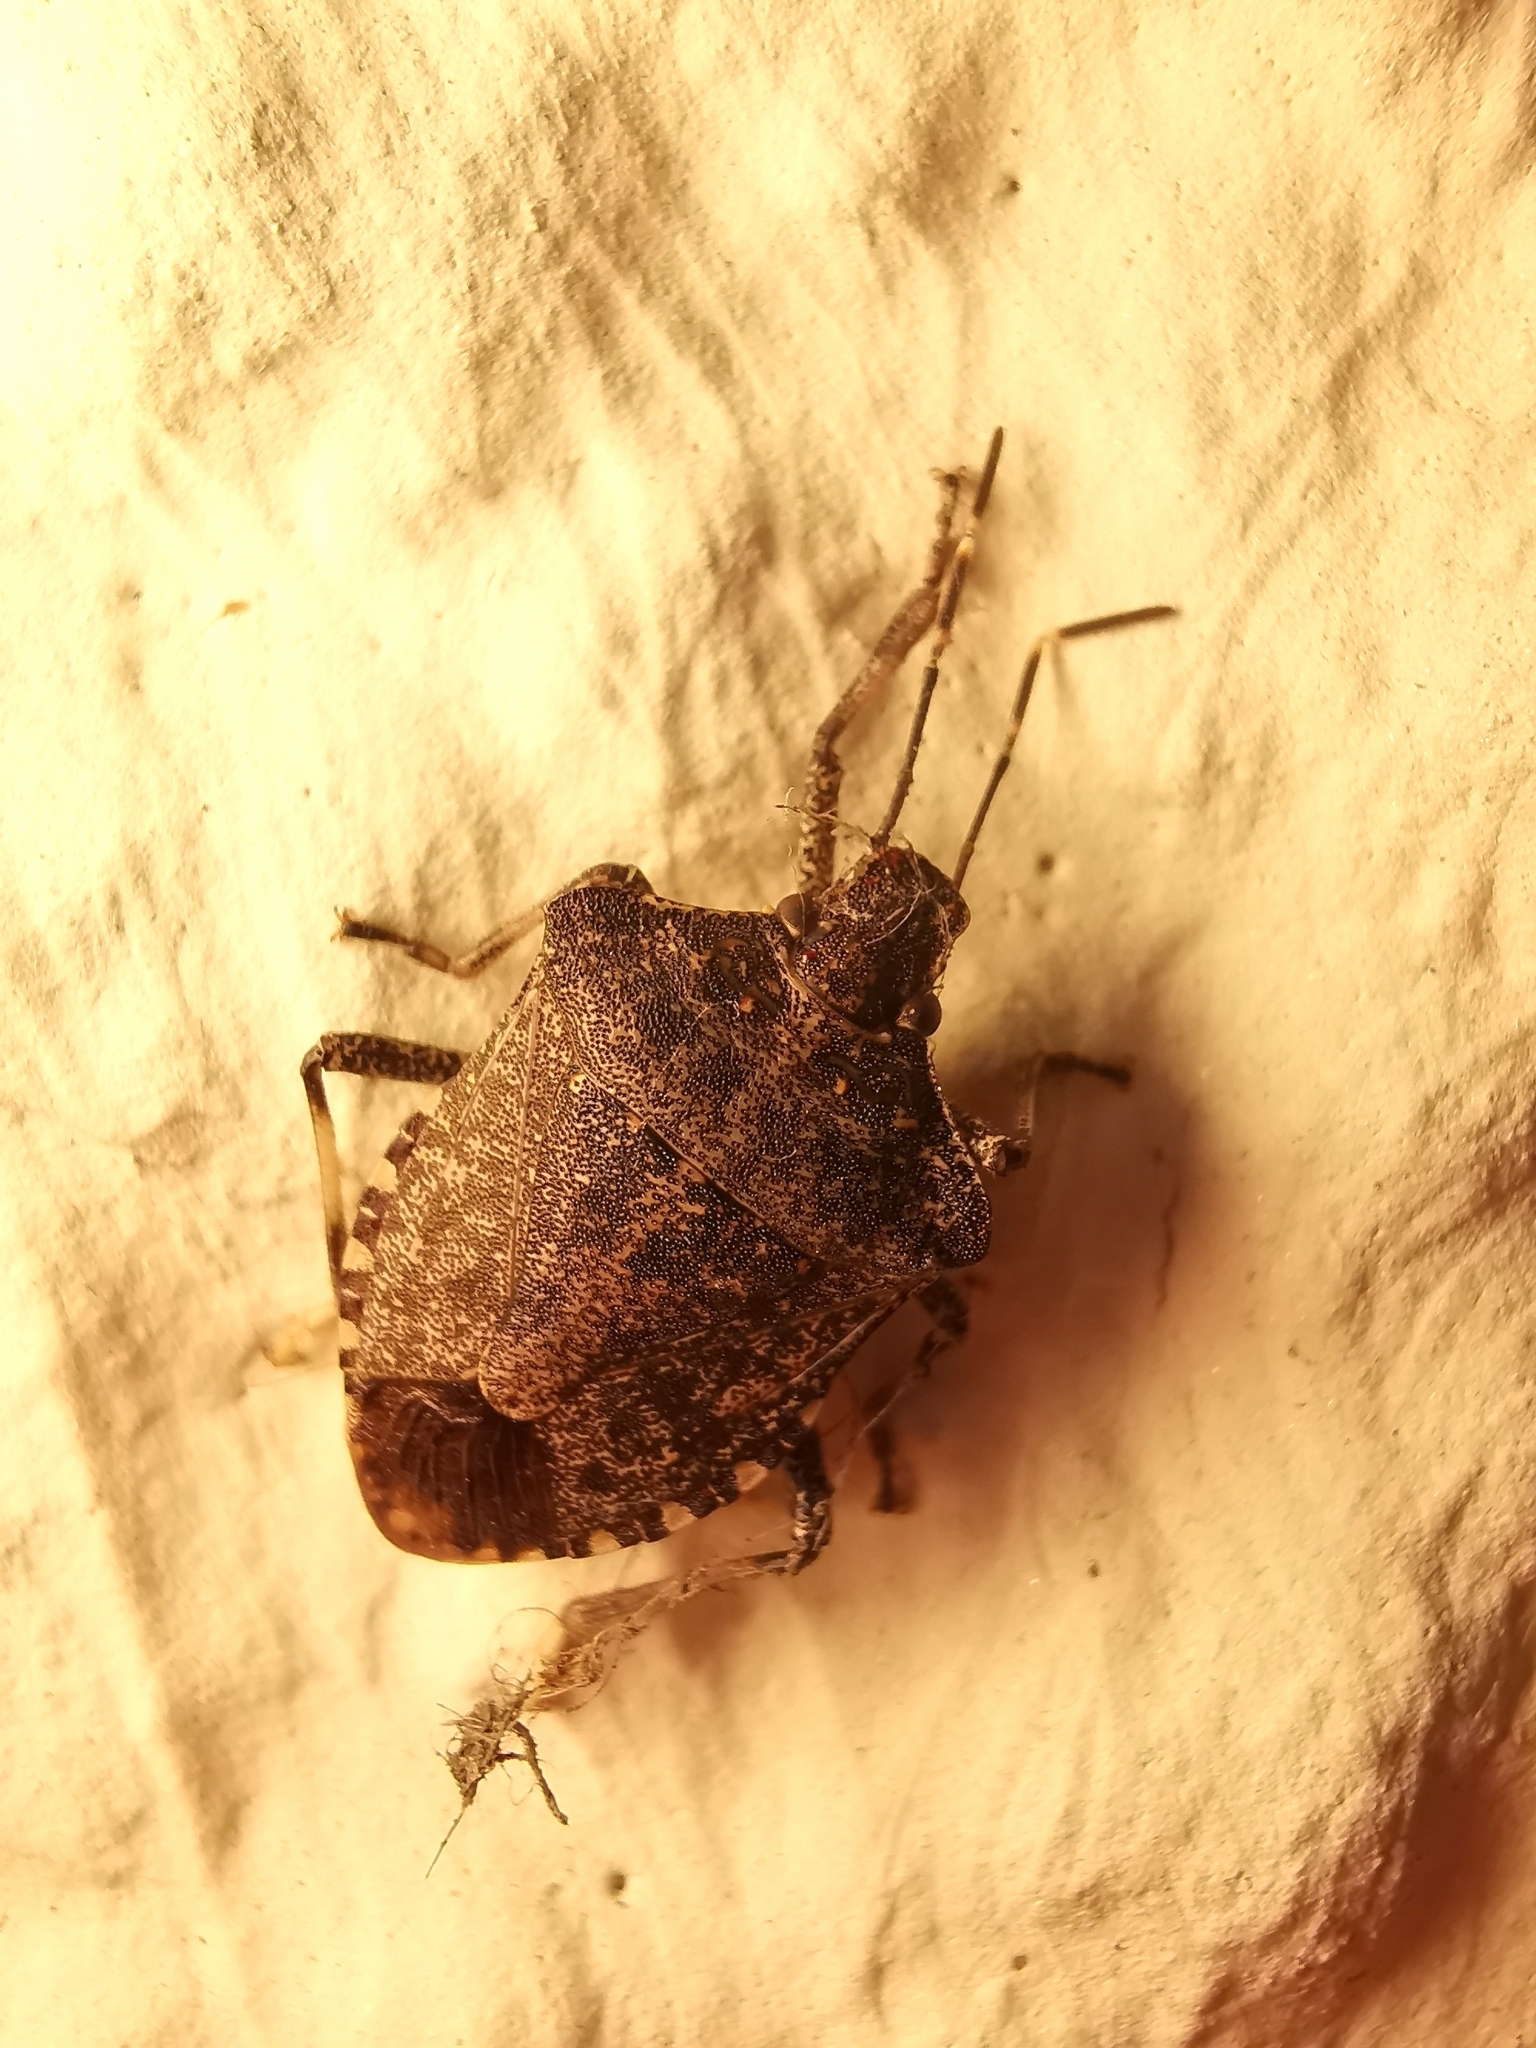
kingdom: Animalia
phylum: Arthropoda
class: Insecta
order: Hemiptera
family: Pentatomidae
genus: Halyomorpha
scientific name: Halyomorpha halys
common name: Brown marmorated stink bug
